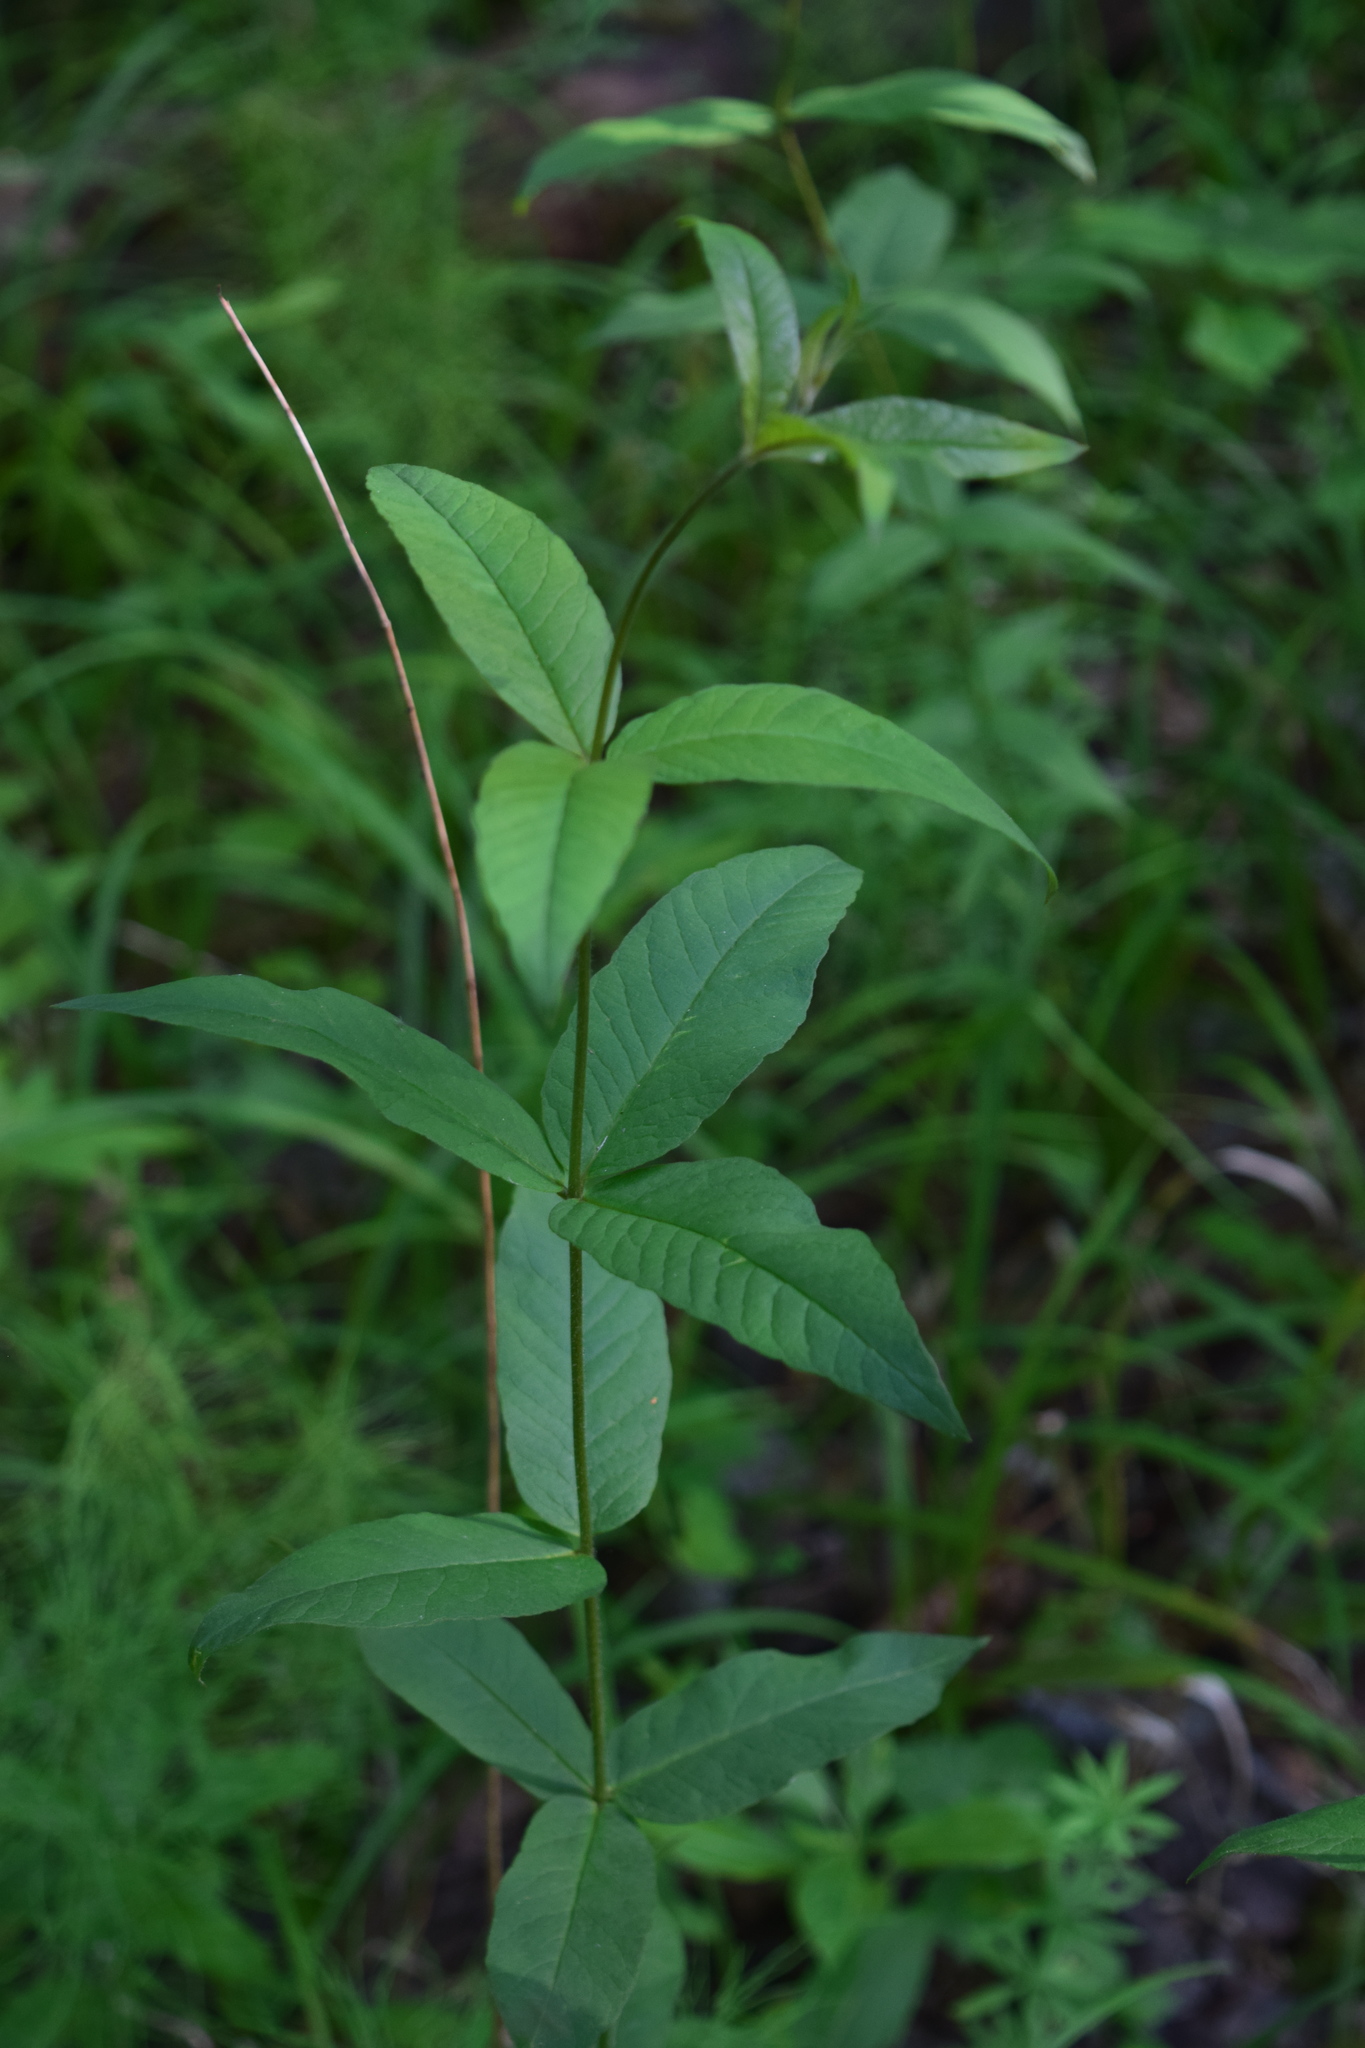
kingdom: Plantae
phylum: Tracheophyta
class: Magnoliopsida
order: Ericales
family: Primulaceae
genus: Lysimachia
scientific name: Lysimachia vulgaris
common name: Yellow loosestrife
